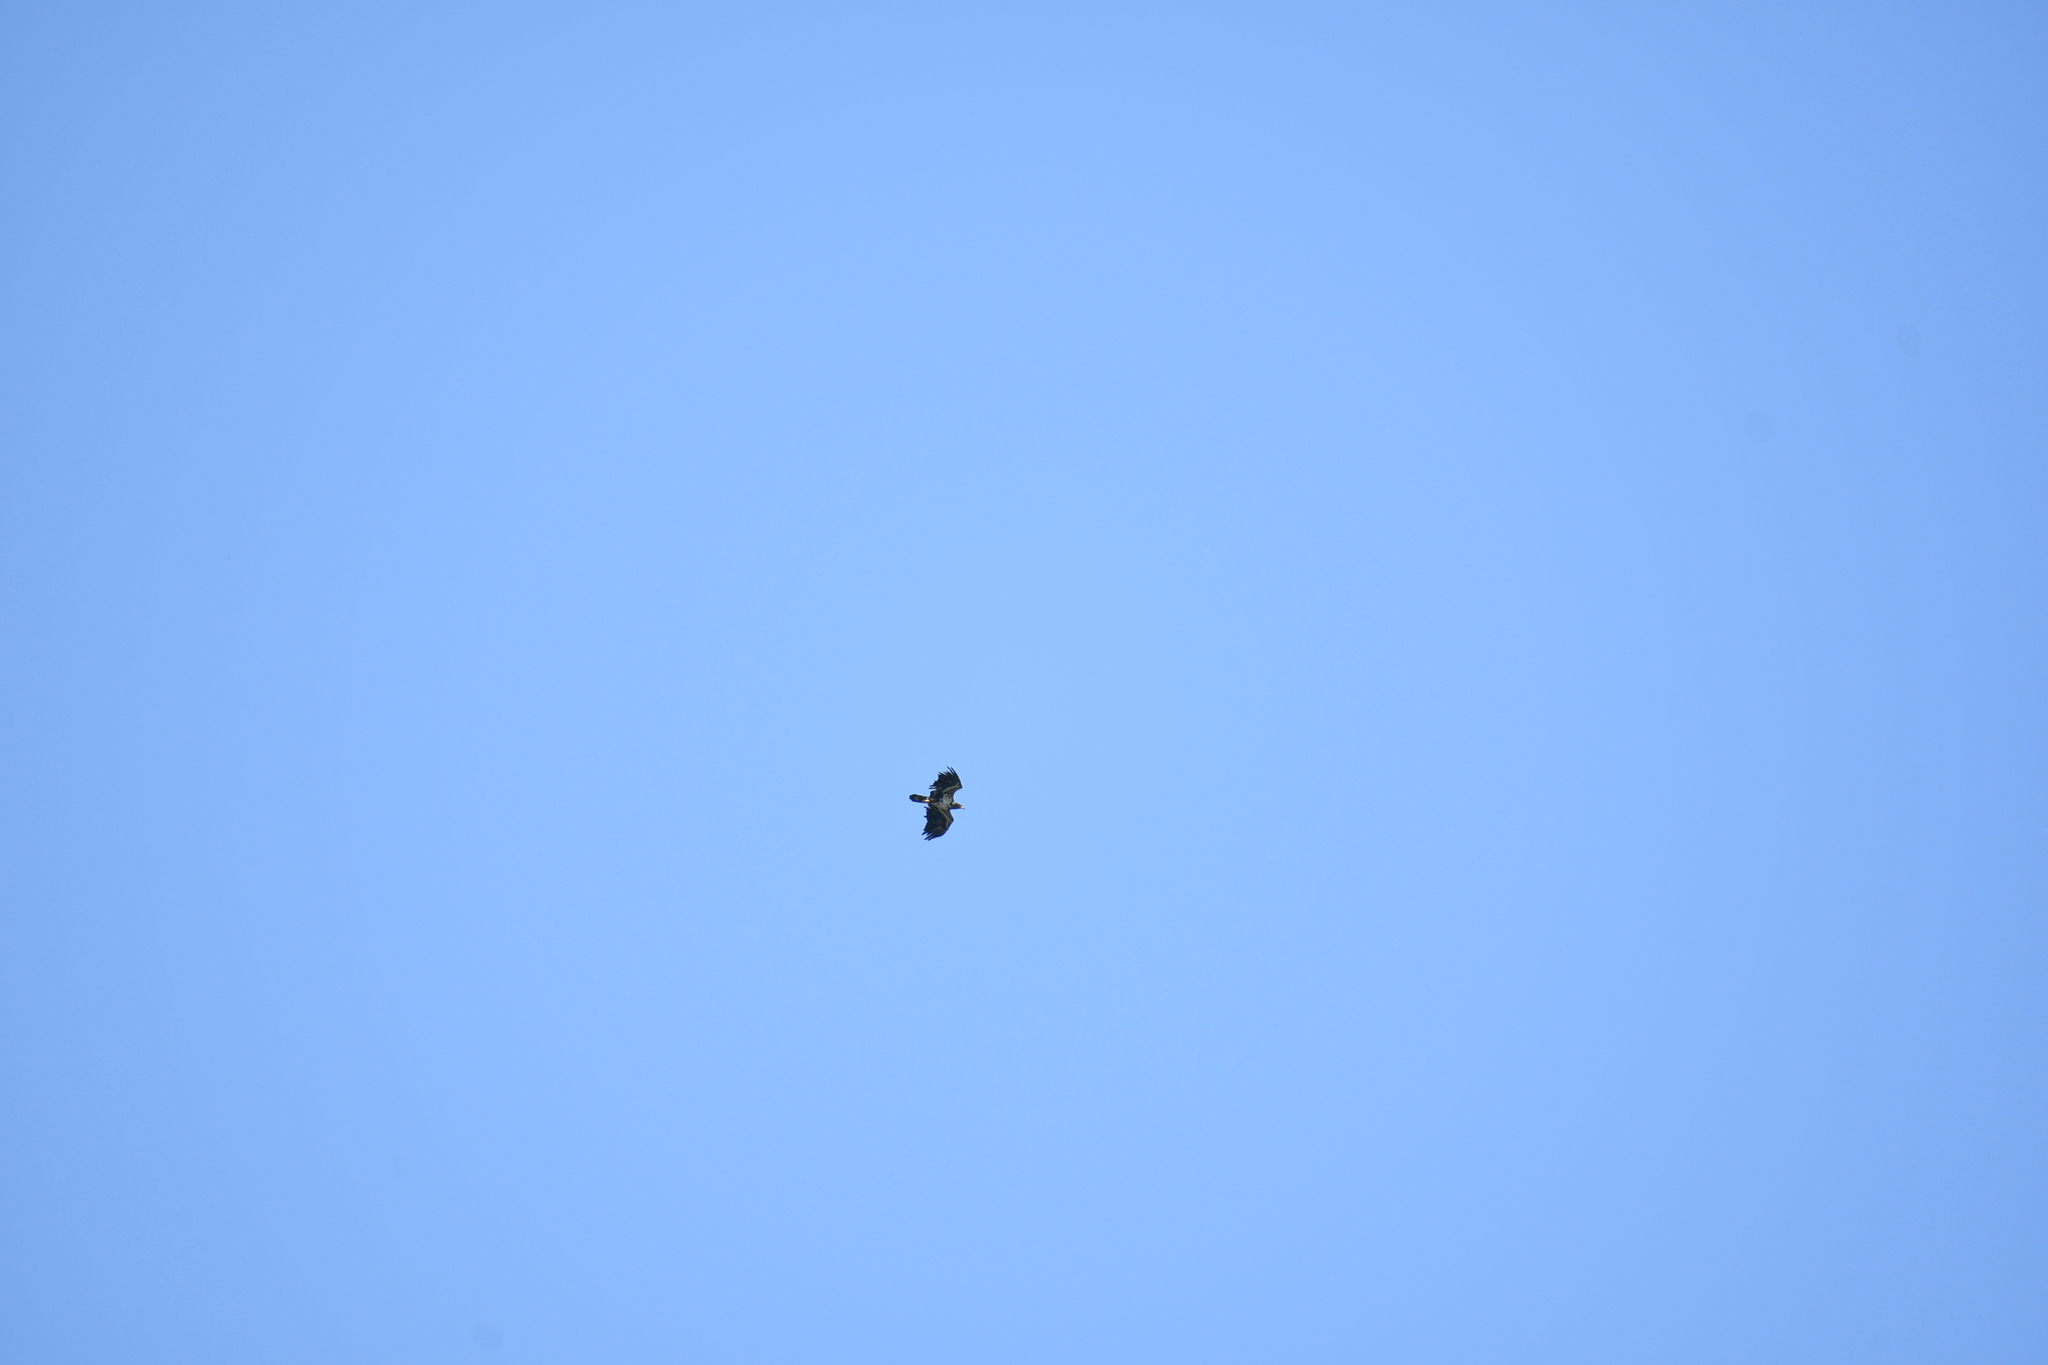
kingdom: Animalia
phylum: Chordata
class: Aves
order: Accipitriformes
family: Accipitridae
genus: Haliaeetus
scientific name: Haliaeetus leucocephalus
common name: Bald eagle
